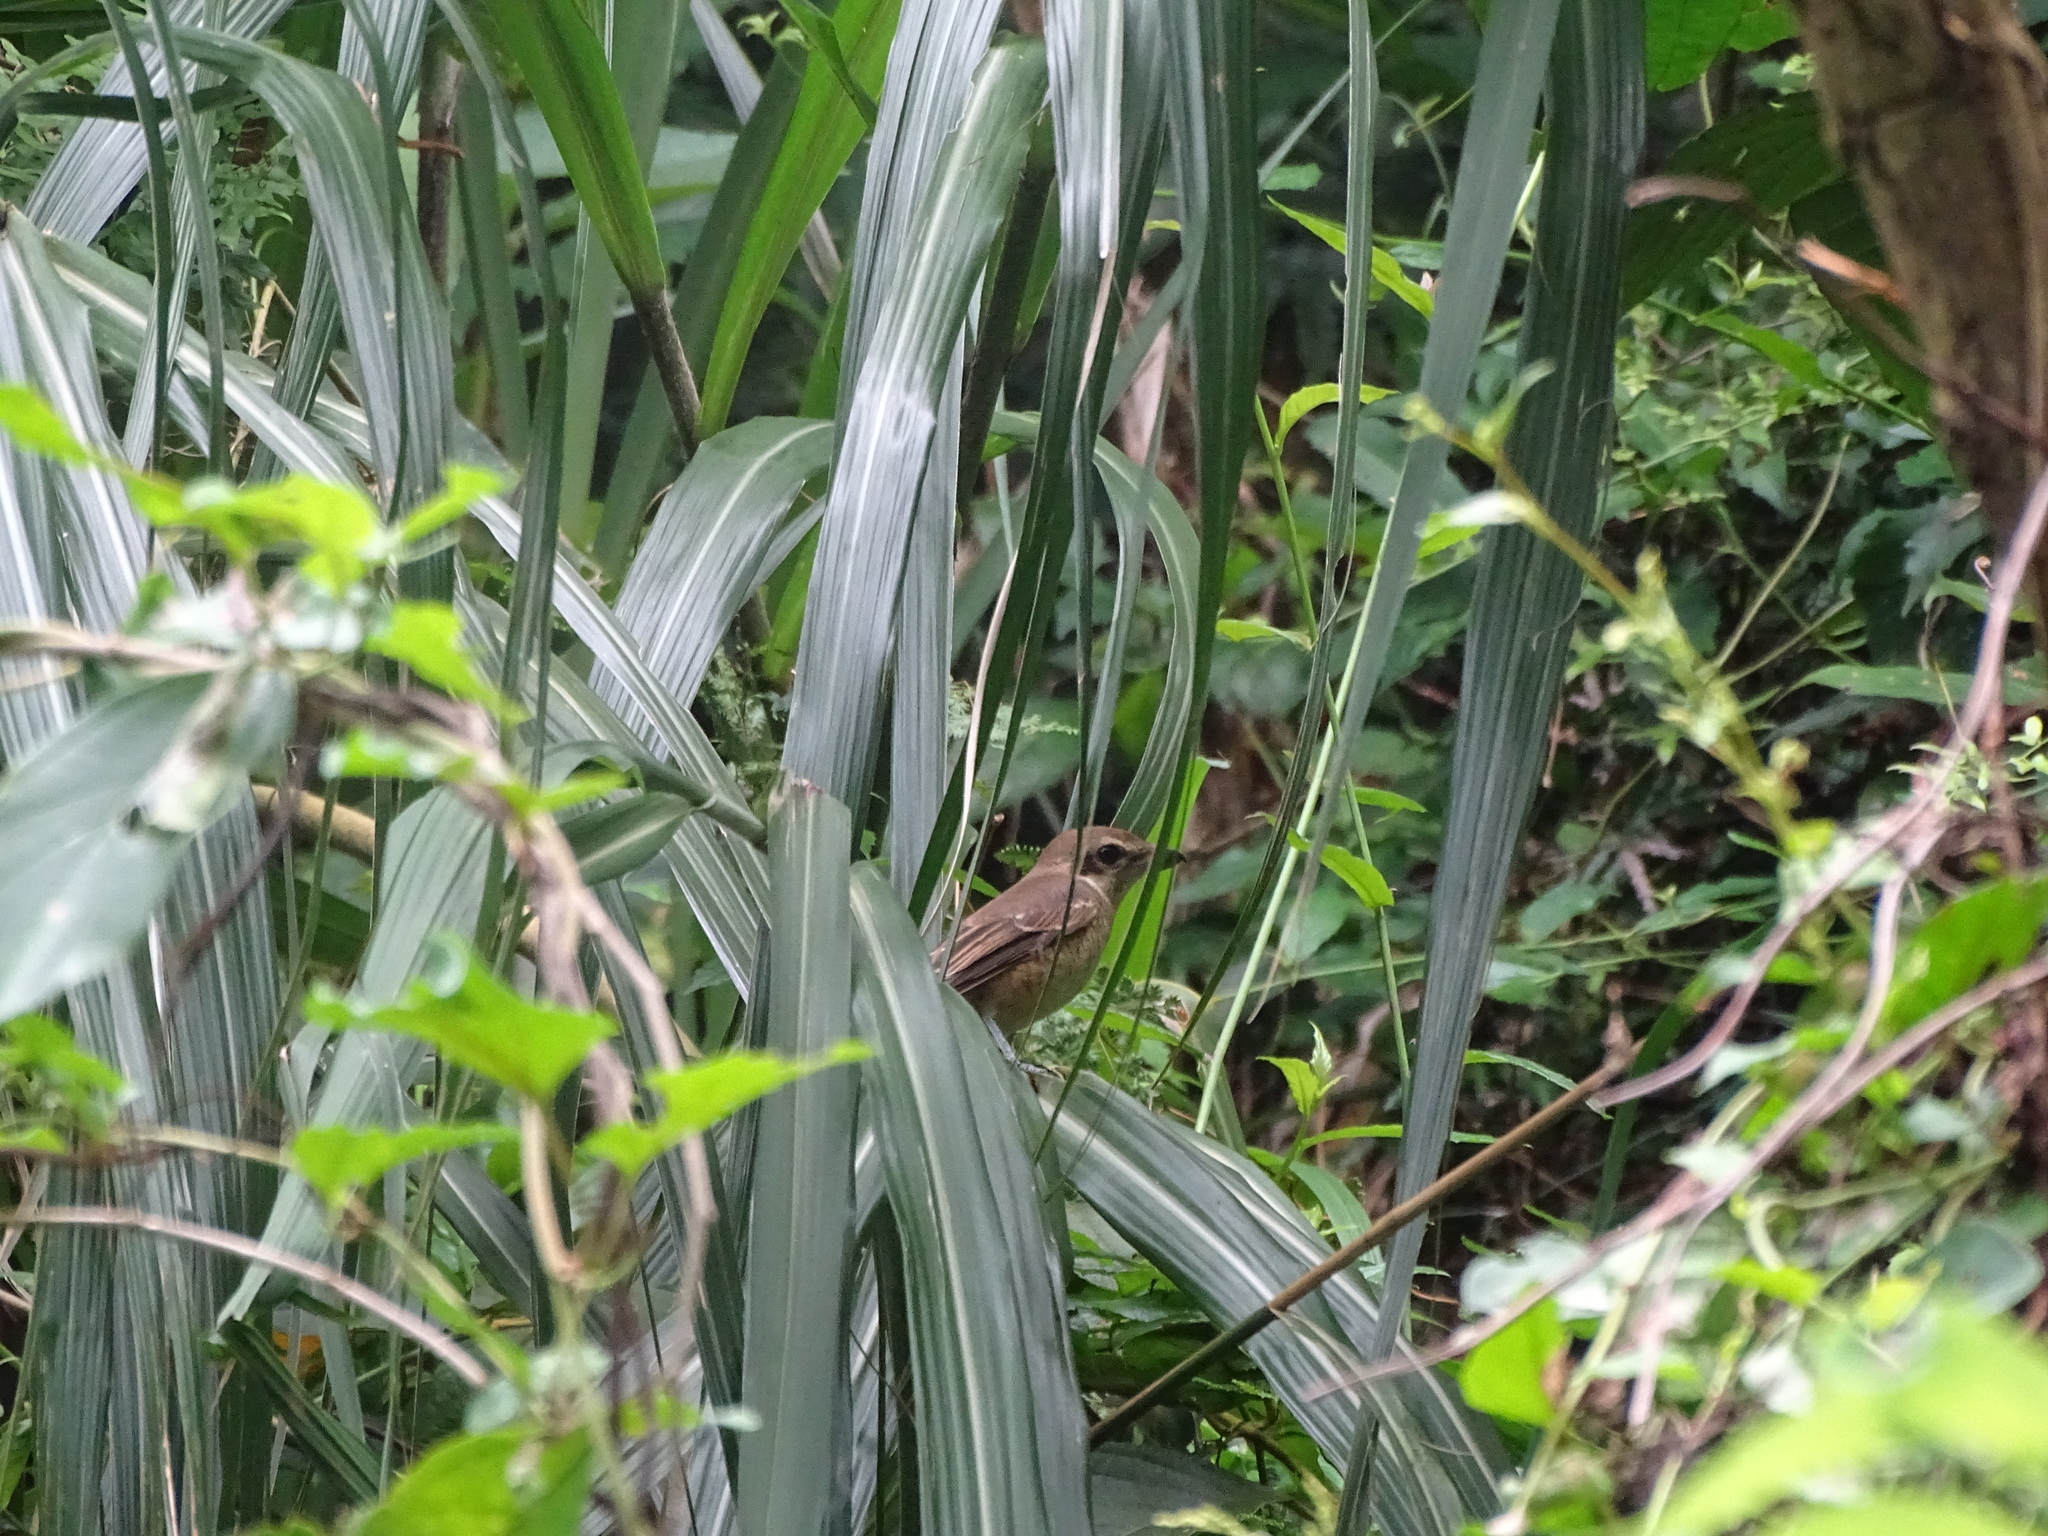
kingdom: Animalia
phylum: Chordata
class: Aves
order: Passeriformes
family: Laniidae
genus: Lanius
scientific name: Lanius cristatus
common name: Brown shrike
